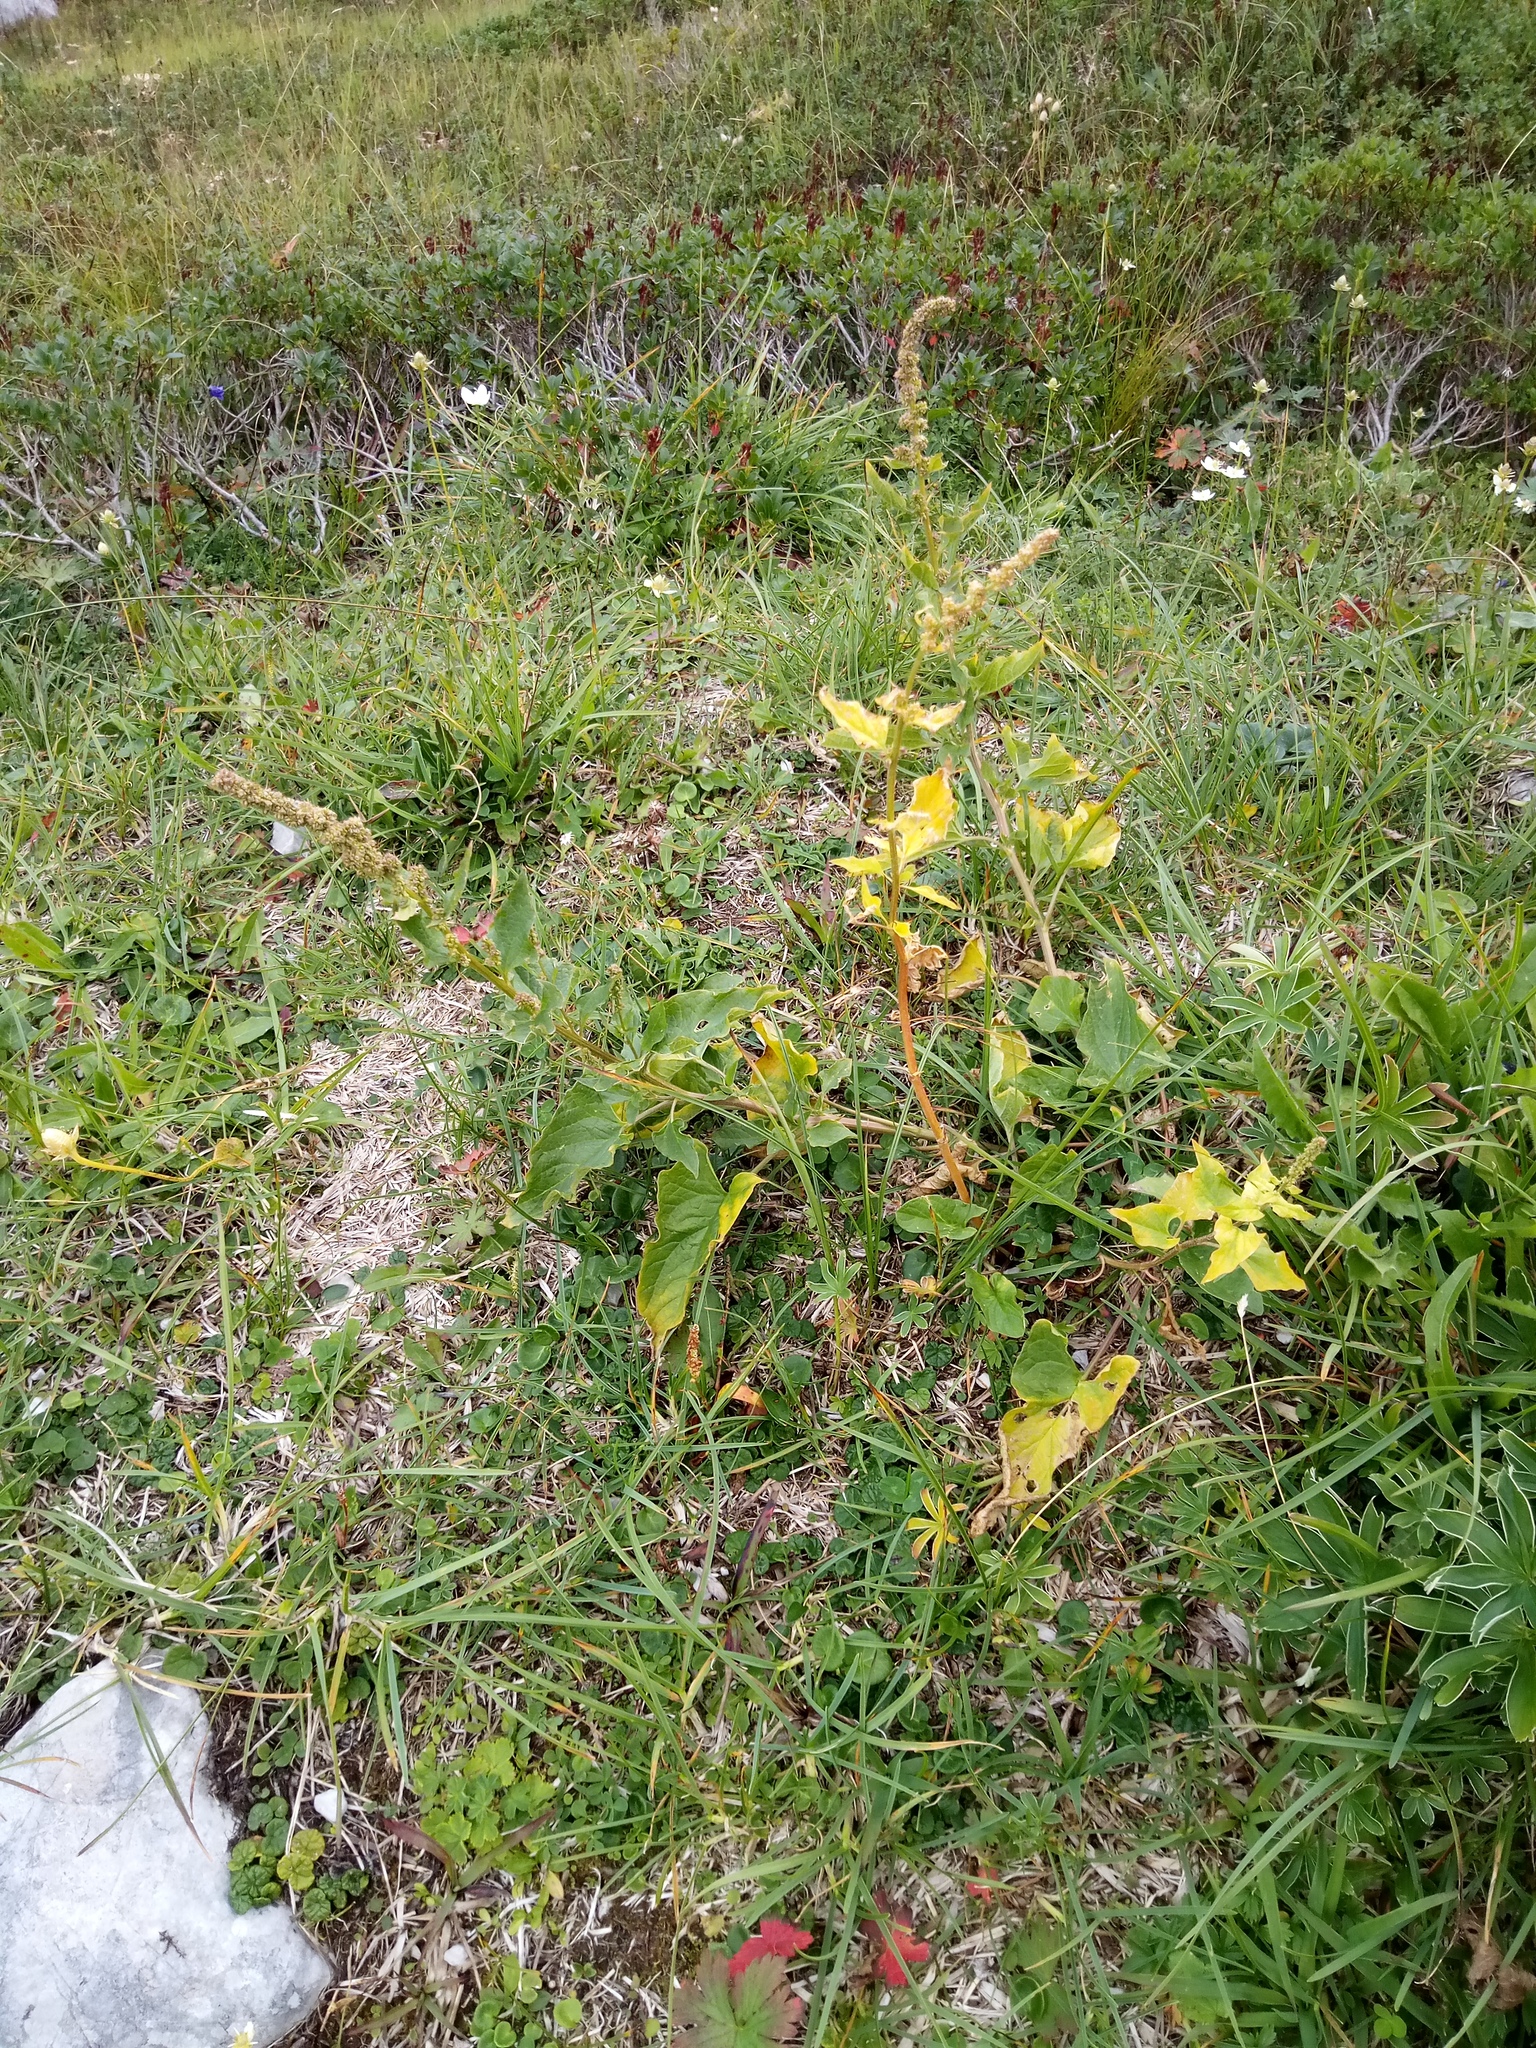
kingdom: Plantae
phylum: Tracheophyta
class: Magnoliopsida
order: Caryophyllales
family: Amaranthaceae
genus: Blitum
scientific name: Blitum bonus-henricus
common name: Good king henry
